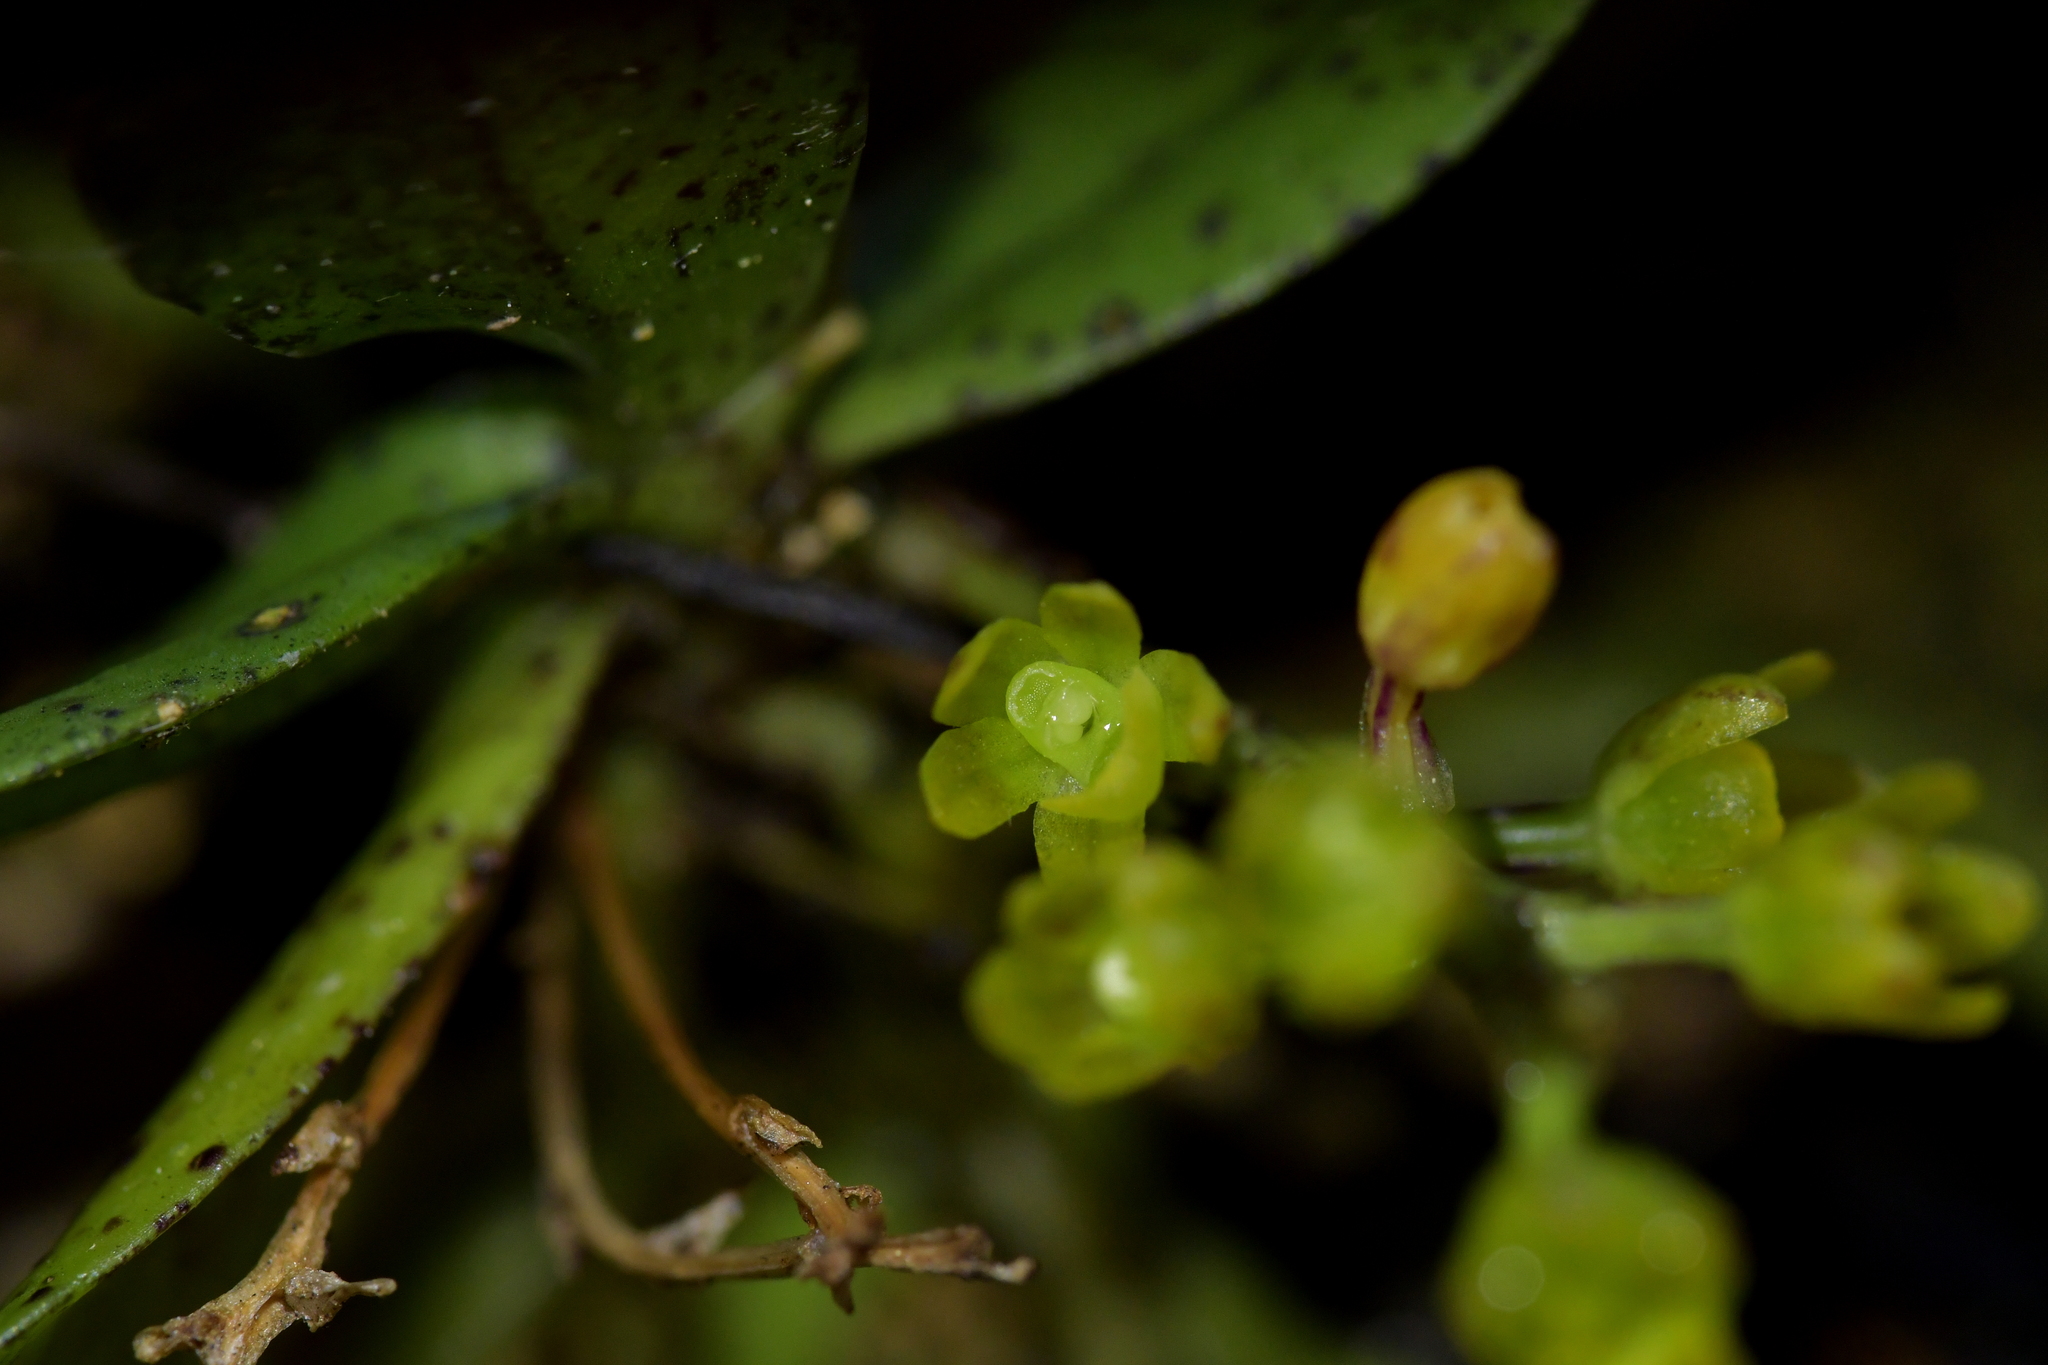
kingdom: Plantae
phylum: Tracheophyta
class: Liliopsida
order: Asparagales
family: Orchidaceae
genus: Drymoanthus
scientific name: Drymoanthus flavus
